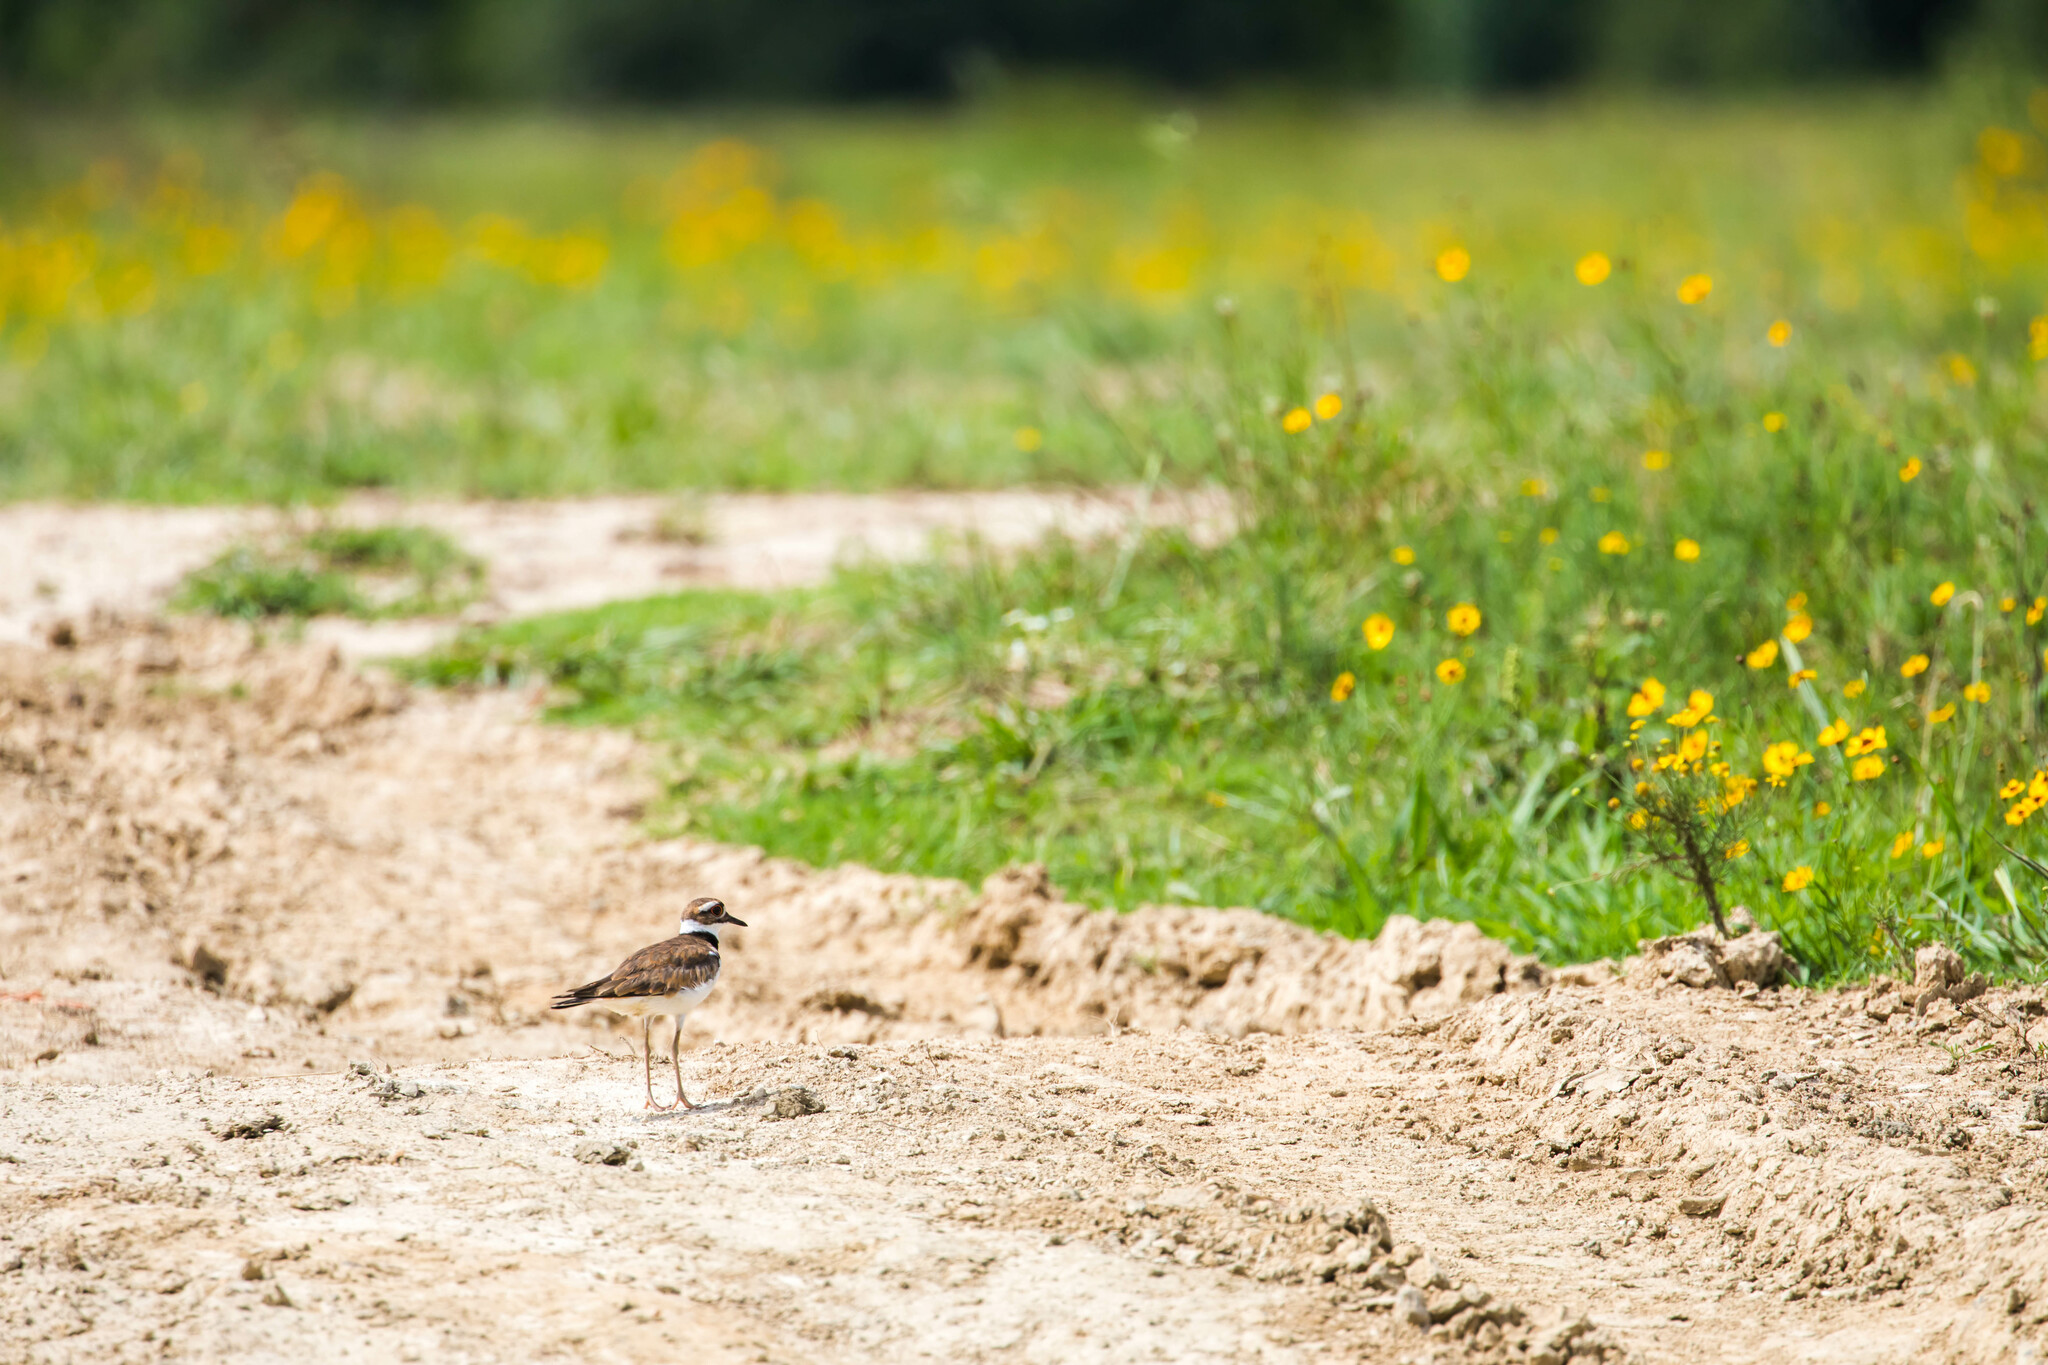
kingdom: Animalia
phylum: Chordata
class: Aves
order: Charadriiformes
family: Charadriidae
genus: Charadrius
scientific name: Charadrius vociferus
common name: Killdeer
